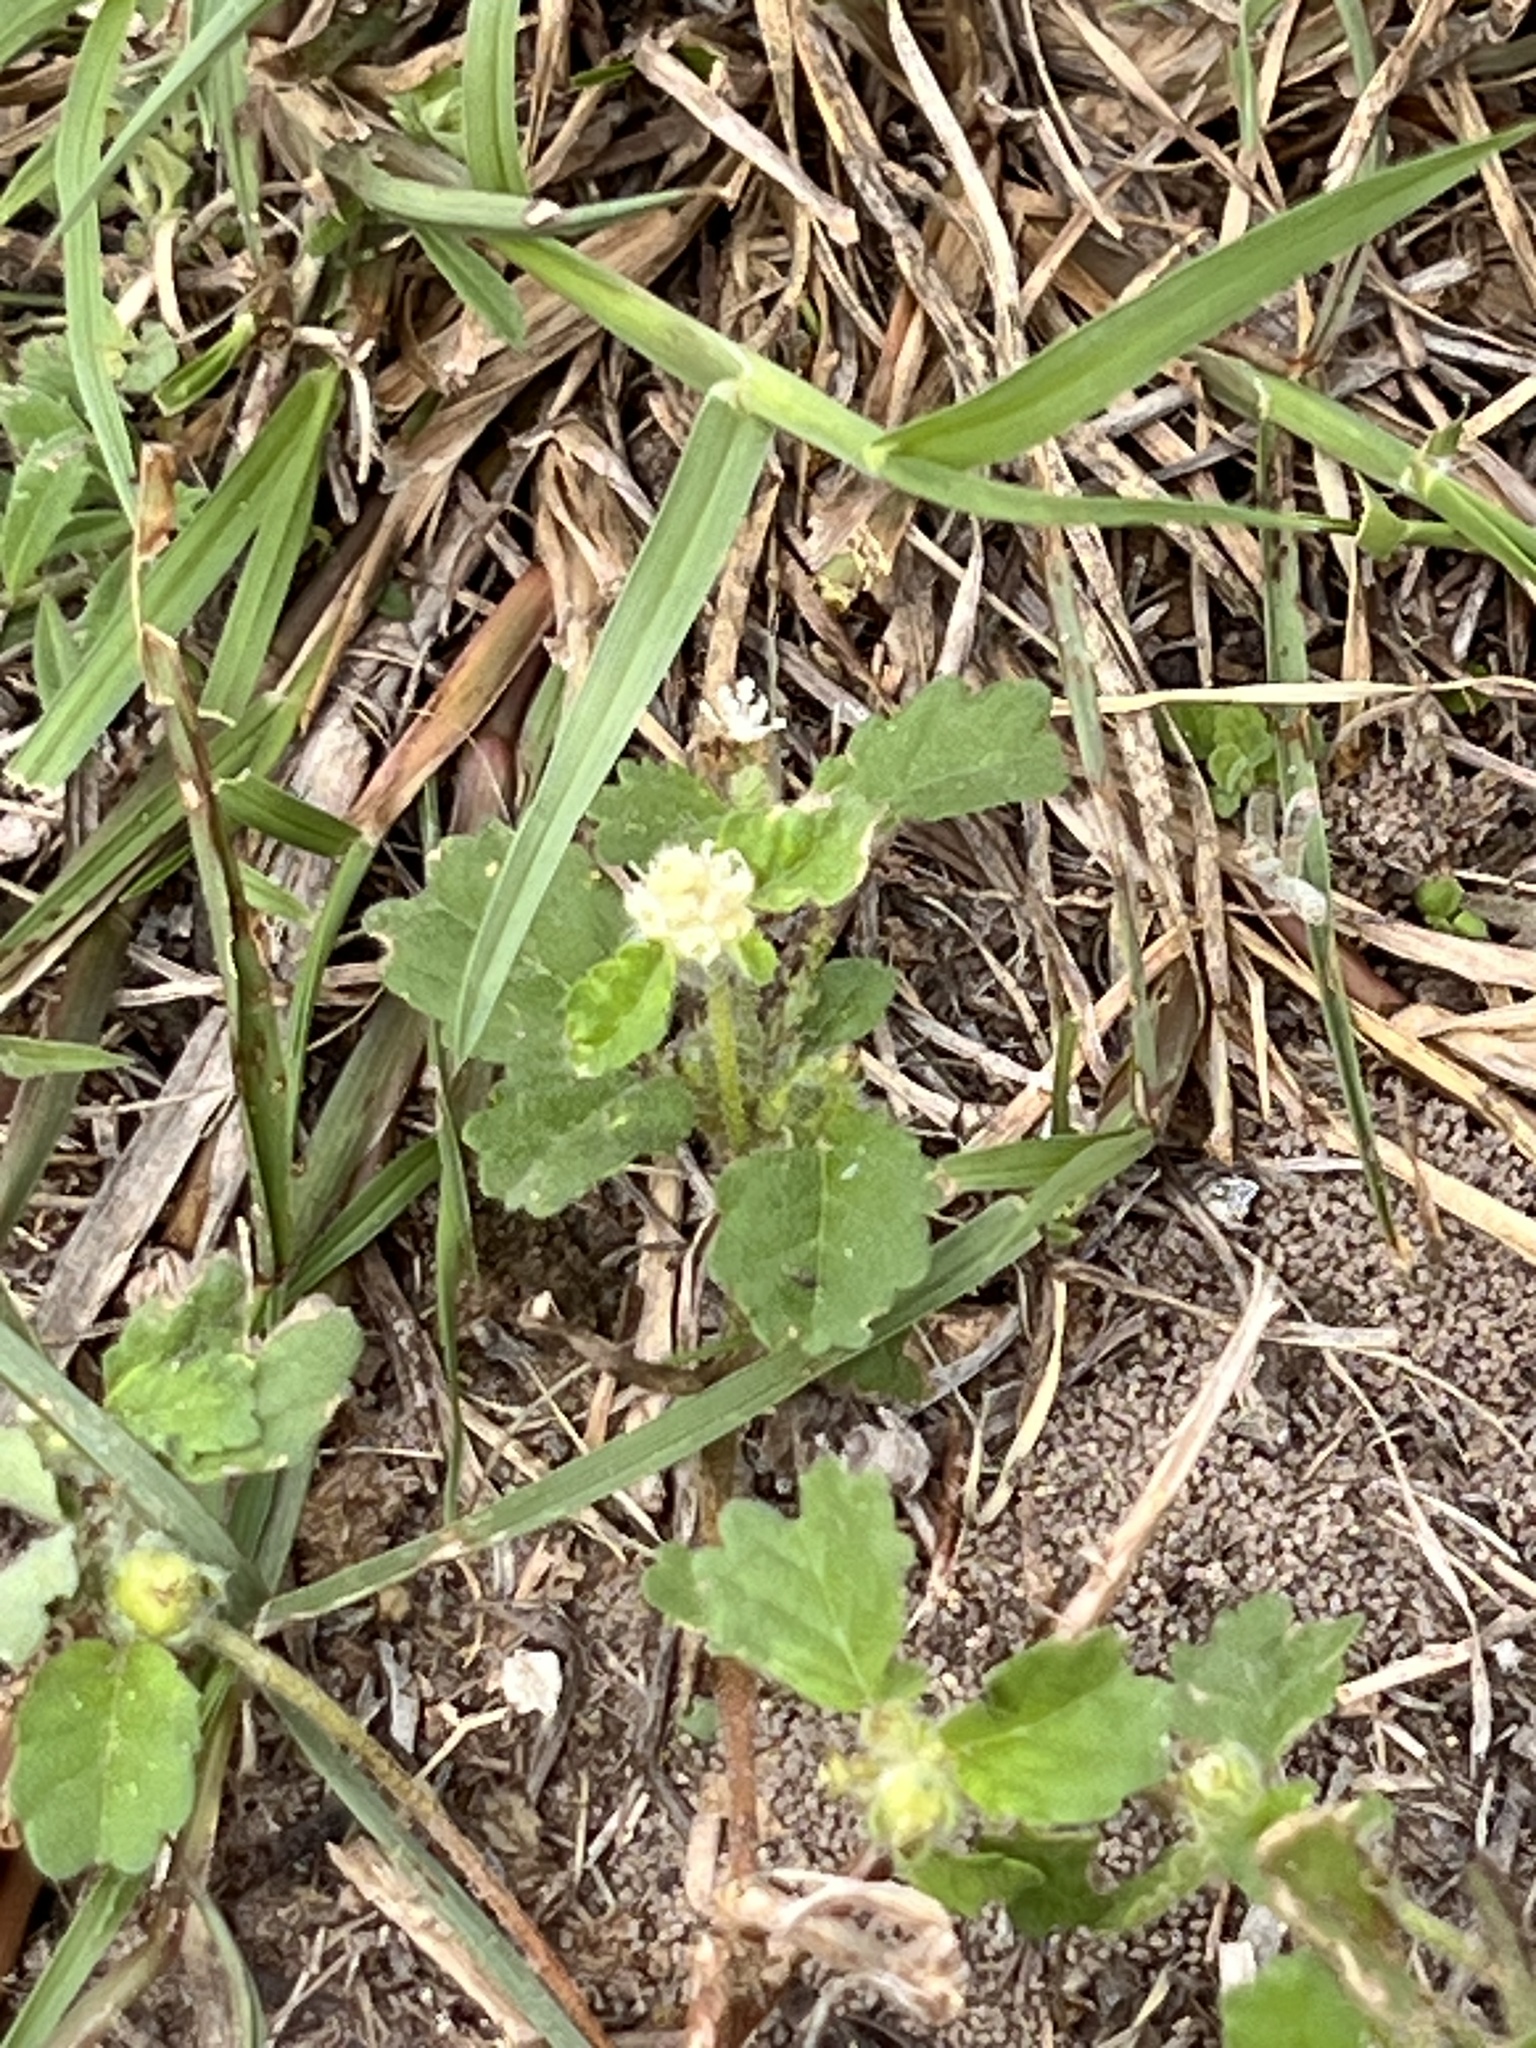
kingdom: Plantae
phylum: Tracheophyta
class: Magnoliopsida
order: Malpighiales
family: Euphorbiaceae
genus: Croton
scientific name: Croton glandulosus
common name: Tropic croton
